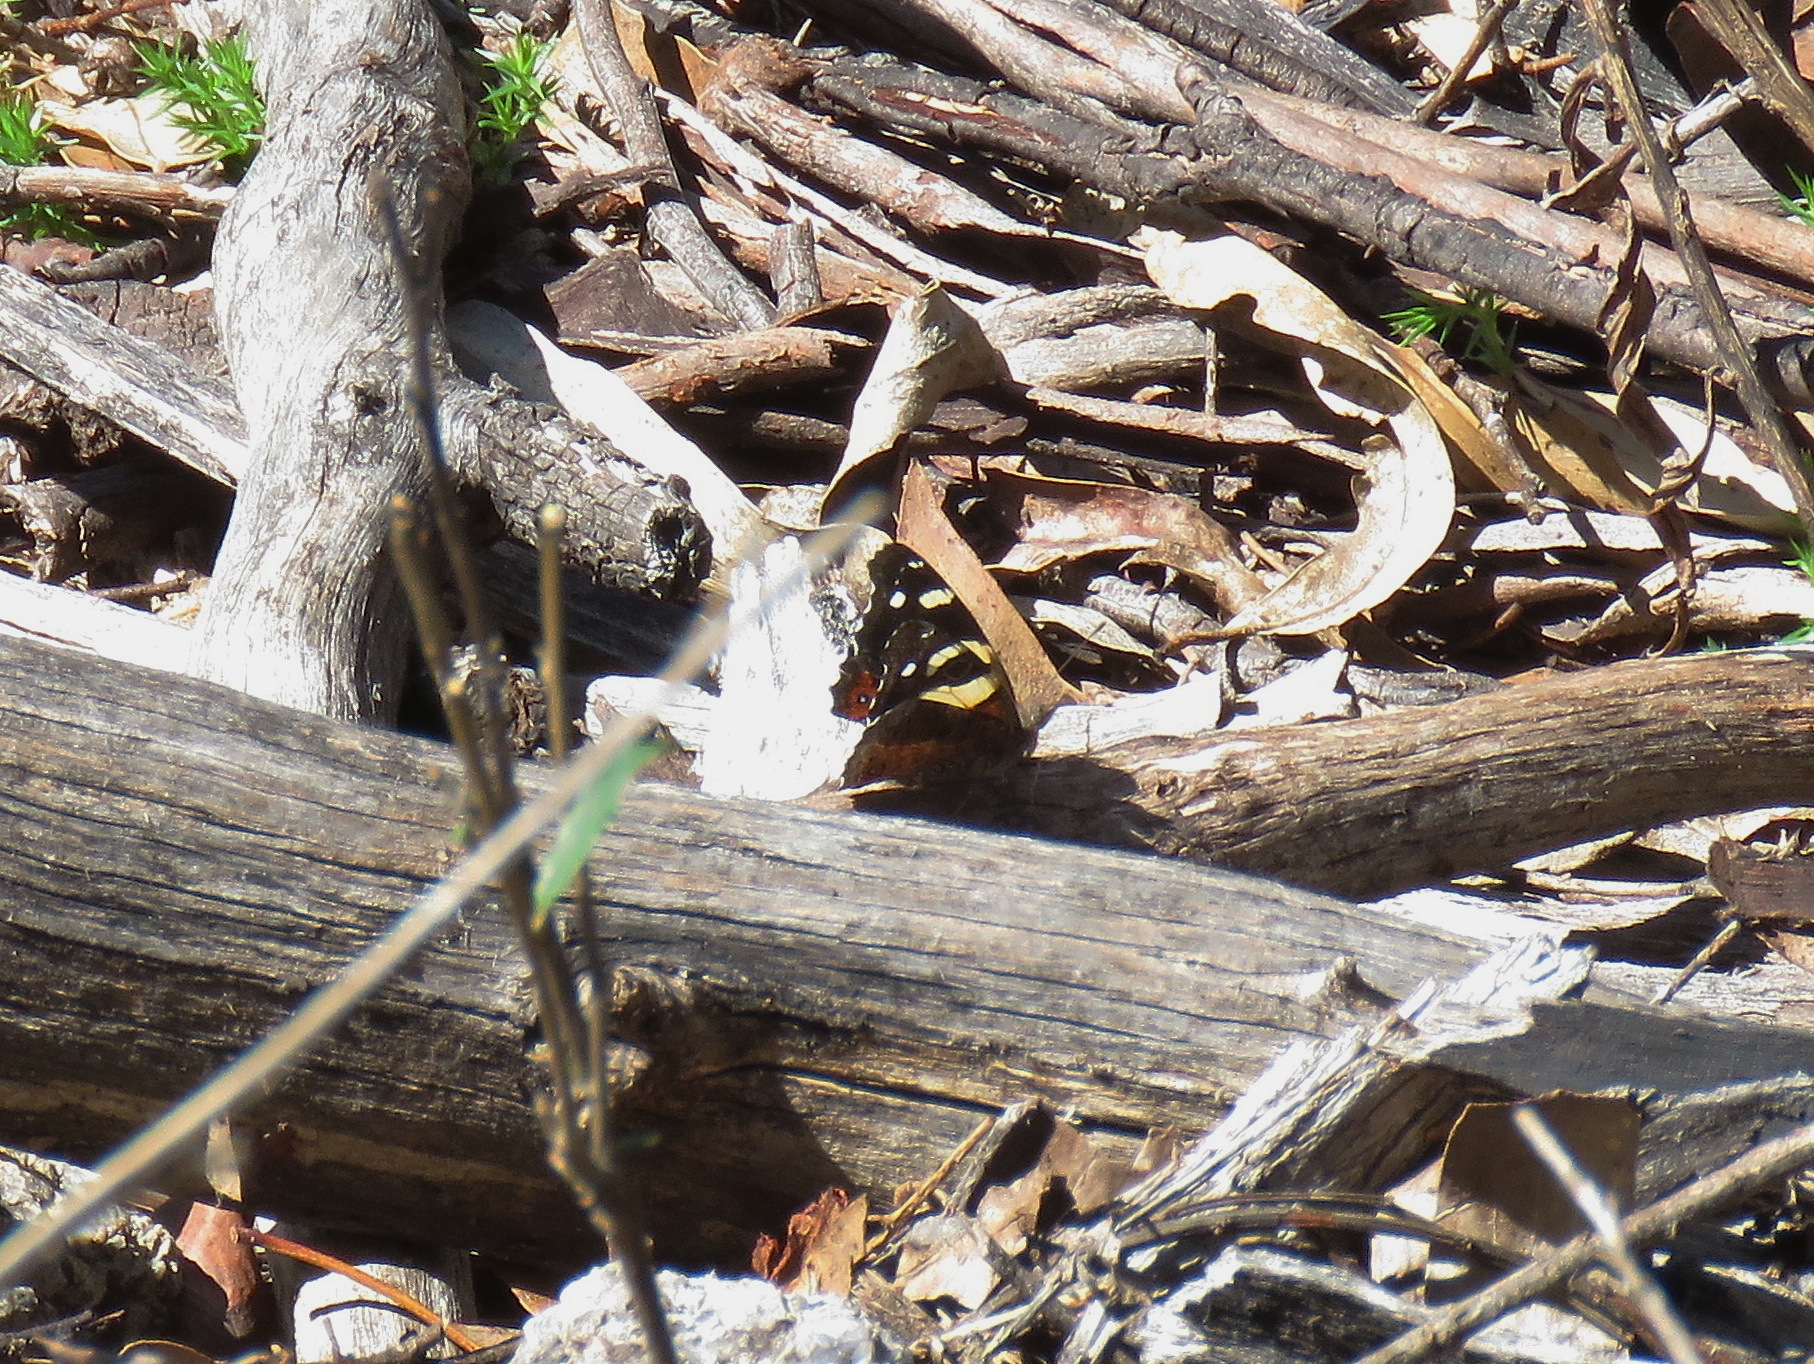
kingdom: Animalia
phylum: Arthropoda
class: Insecta
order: Lepidoptera
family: Nymphalidae
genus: Vanessa
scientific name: Vanessa itea
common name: Yellow admiral
